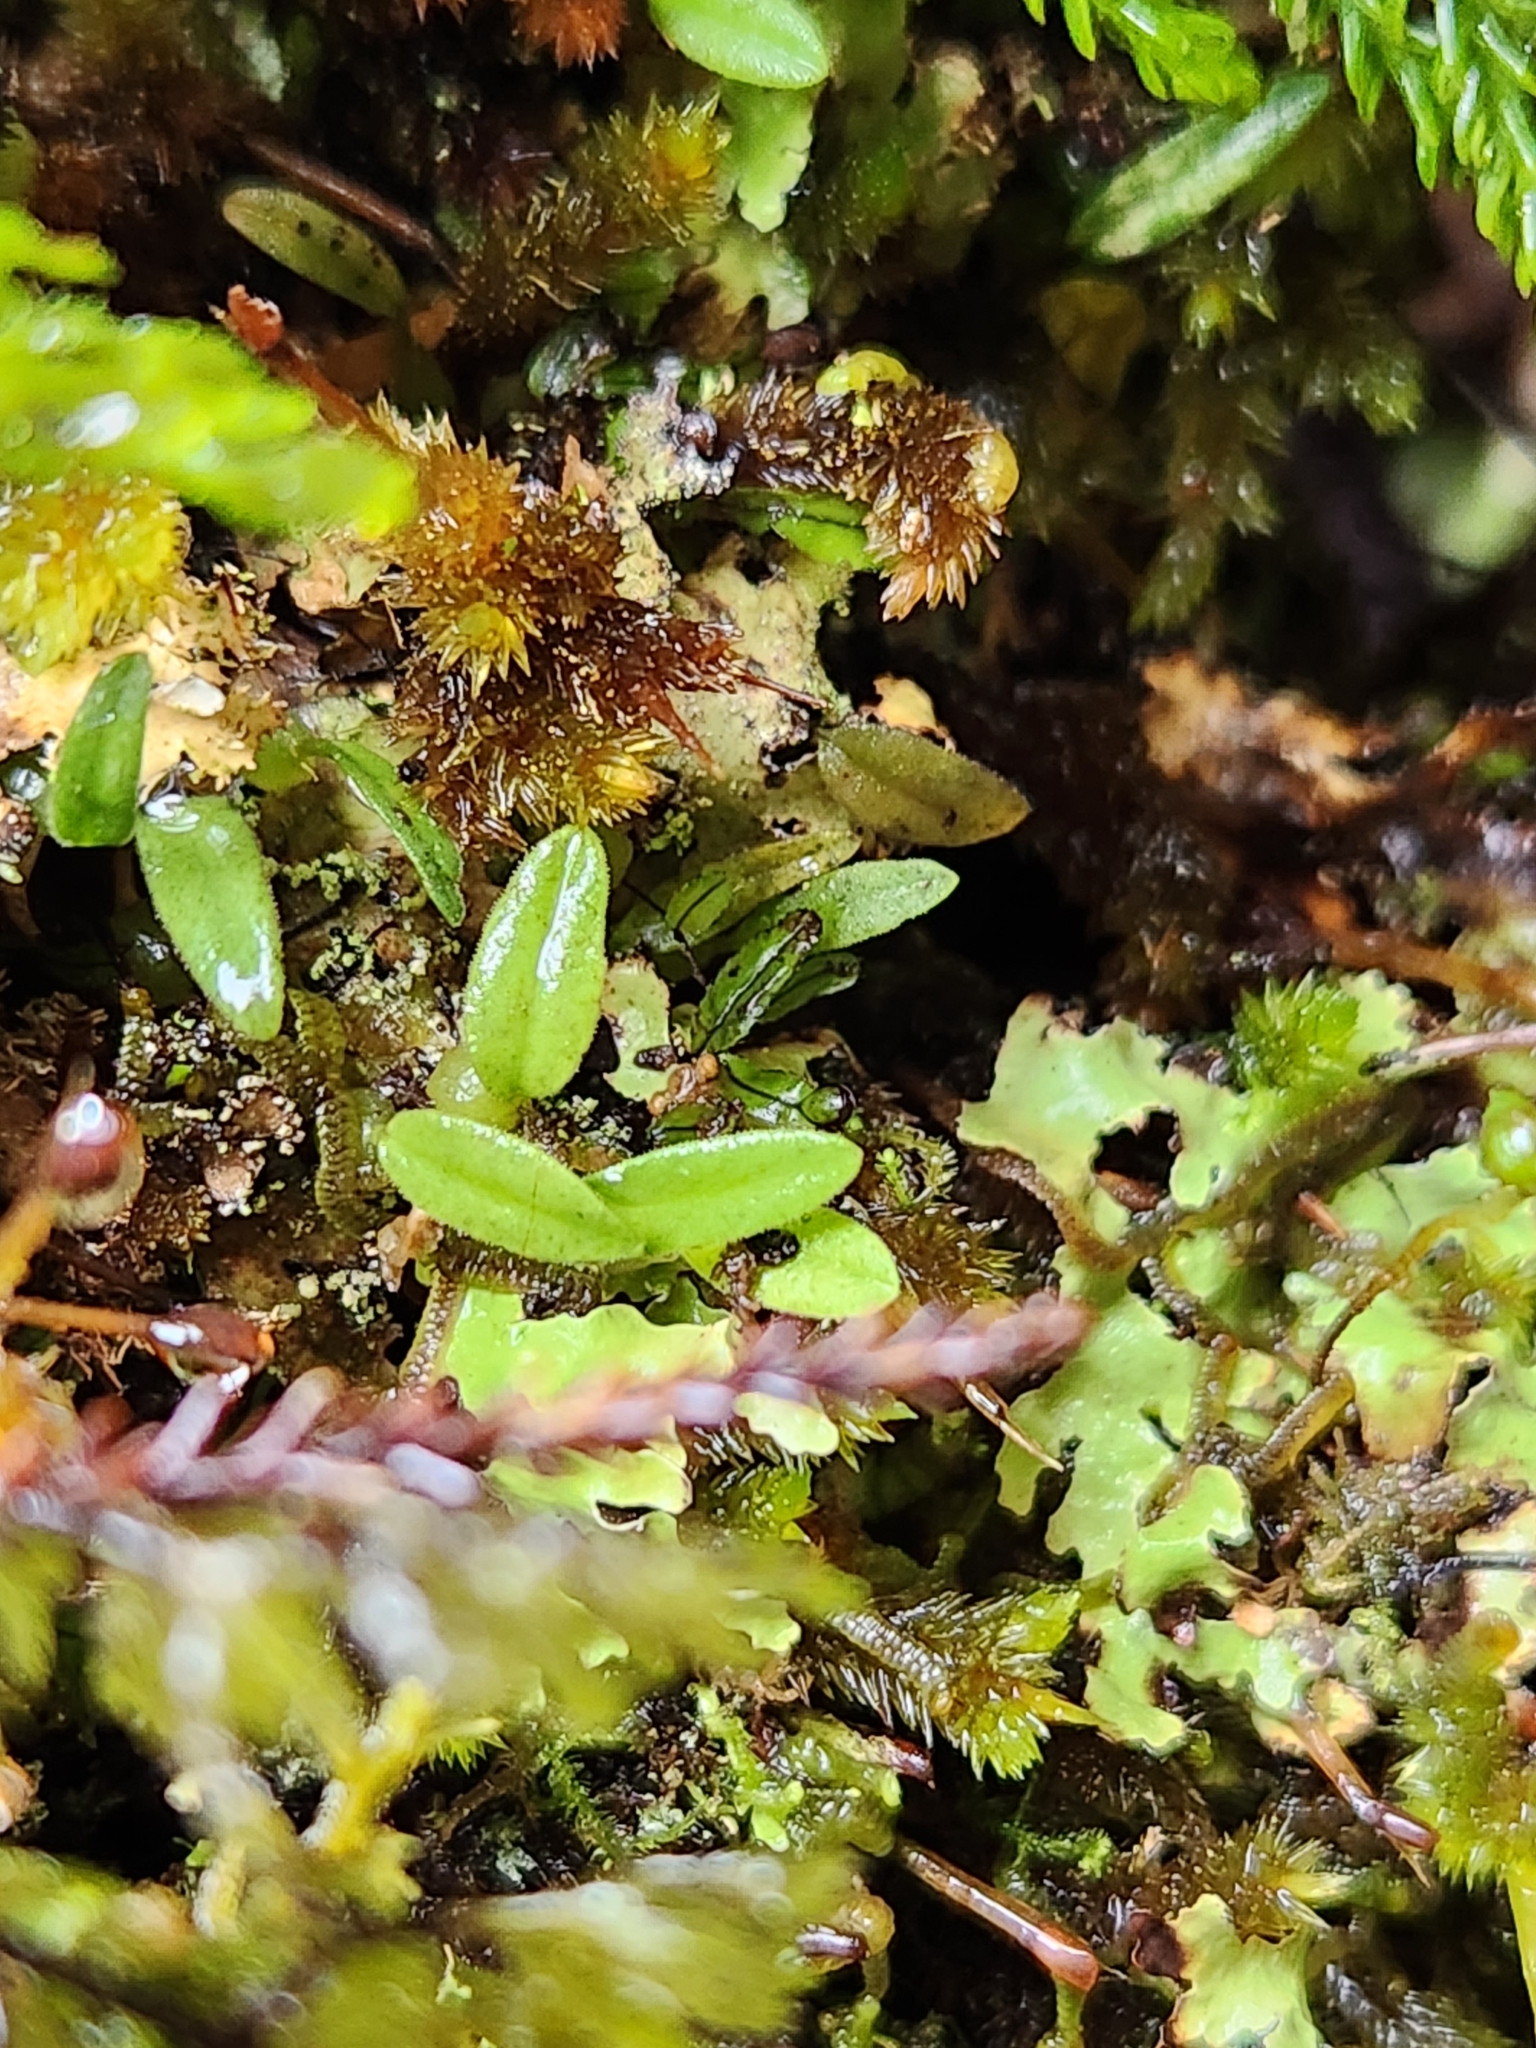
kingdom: Plantae
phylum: Tracheophyta
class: Liliopsida
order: Asparagales
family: Orchidaceae
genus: Bulbophyllum
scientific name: Bulbophyllum pygmaeum
